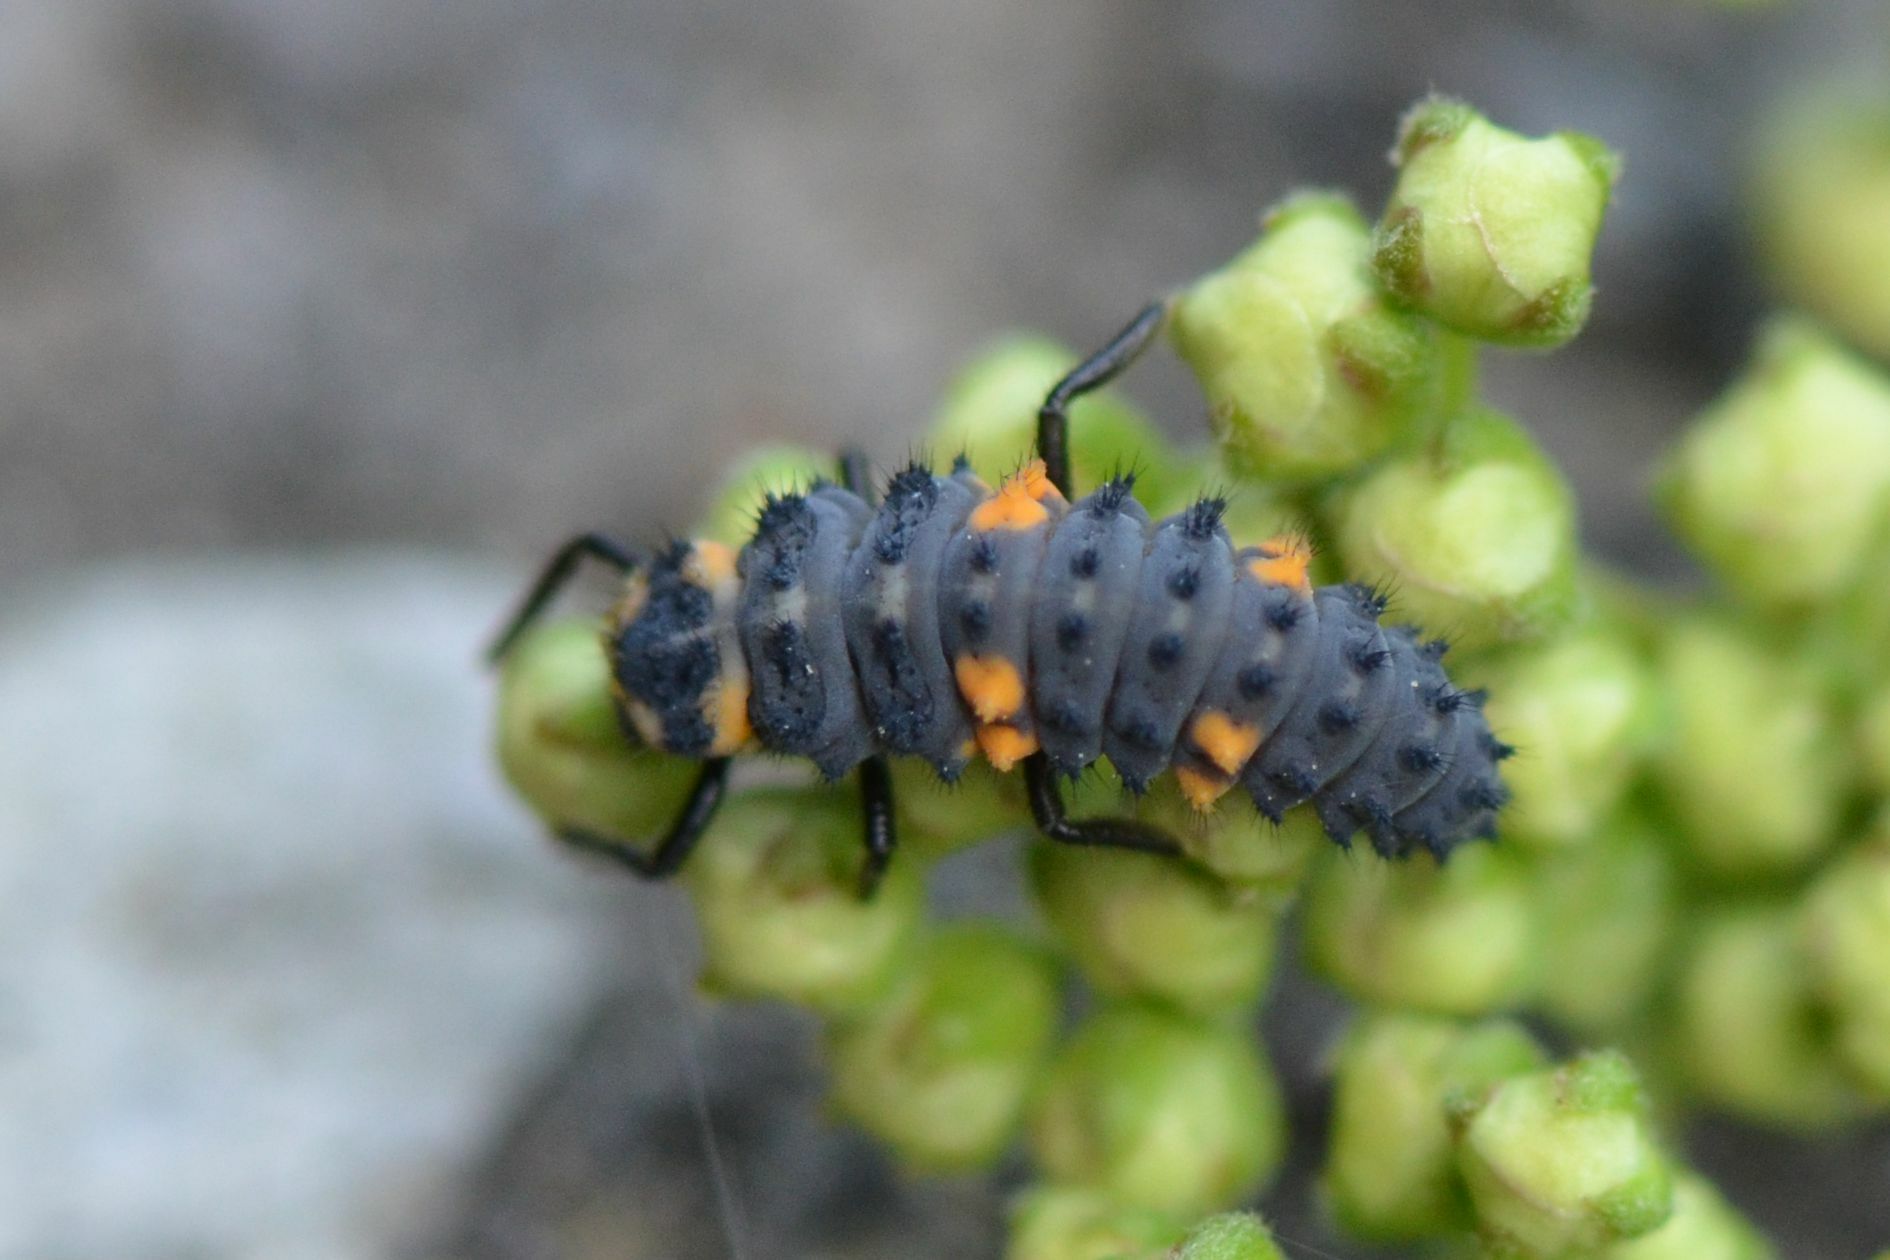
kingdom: Animalia
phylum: Arthropoda
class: Insecta
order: Coleoptera
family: Coccinellidae
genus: Coccinella
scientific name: Coccinella septempunctata
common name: Sevenspotted lady beetle
